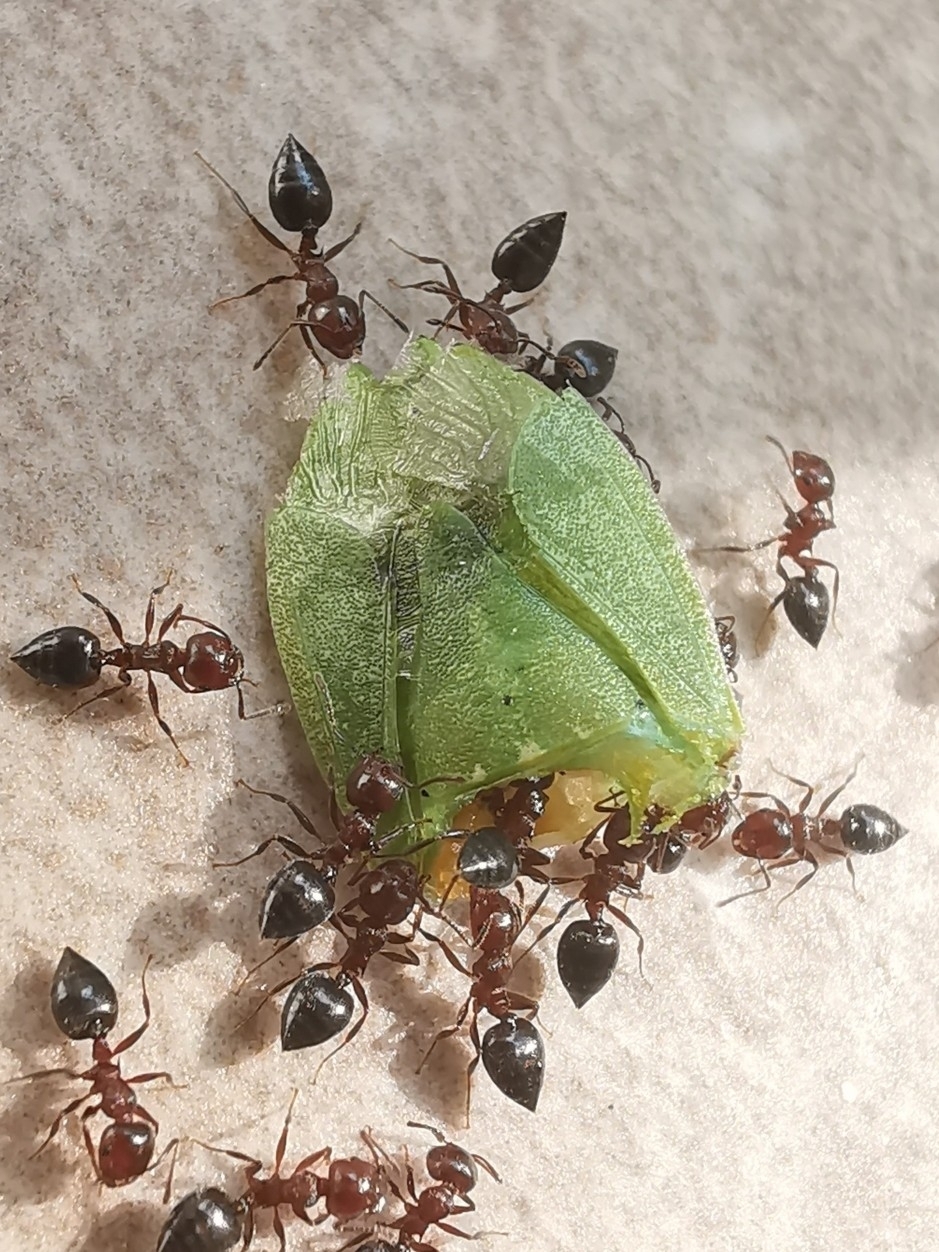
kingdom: Animalia
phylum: Arthropoda
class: Insecta
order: Hemiptera
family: Pentatomidae
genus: Nezara
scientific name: Nezara viridula
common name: Southern green stink bug
